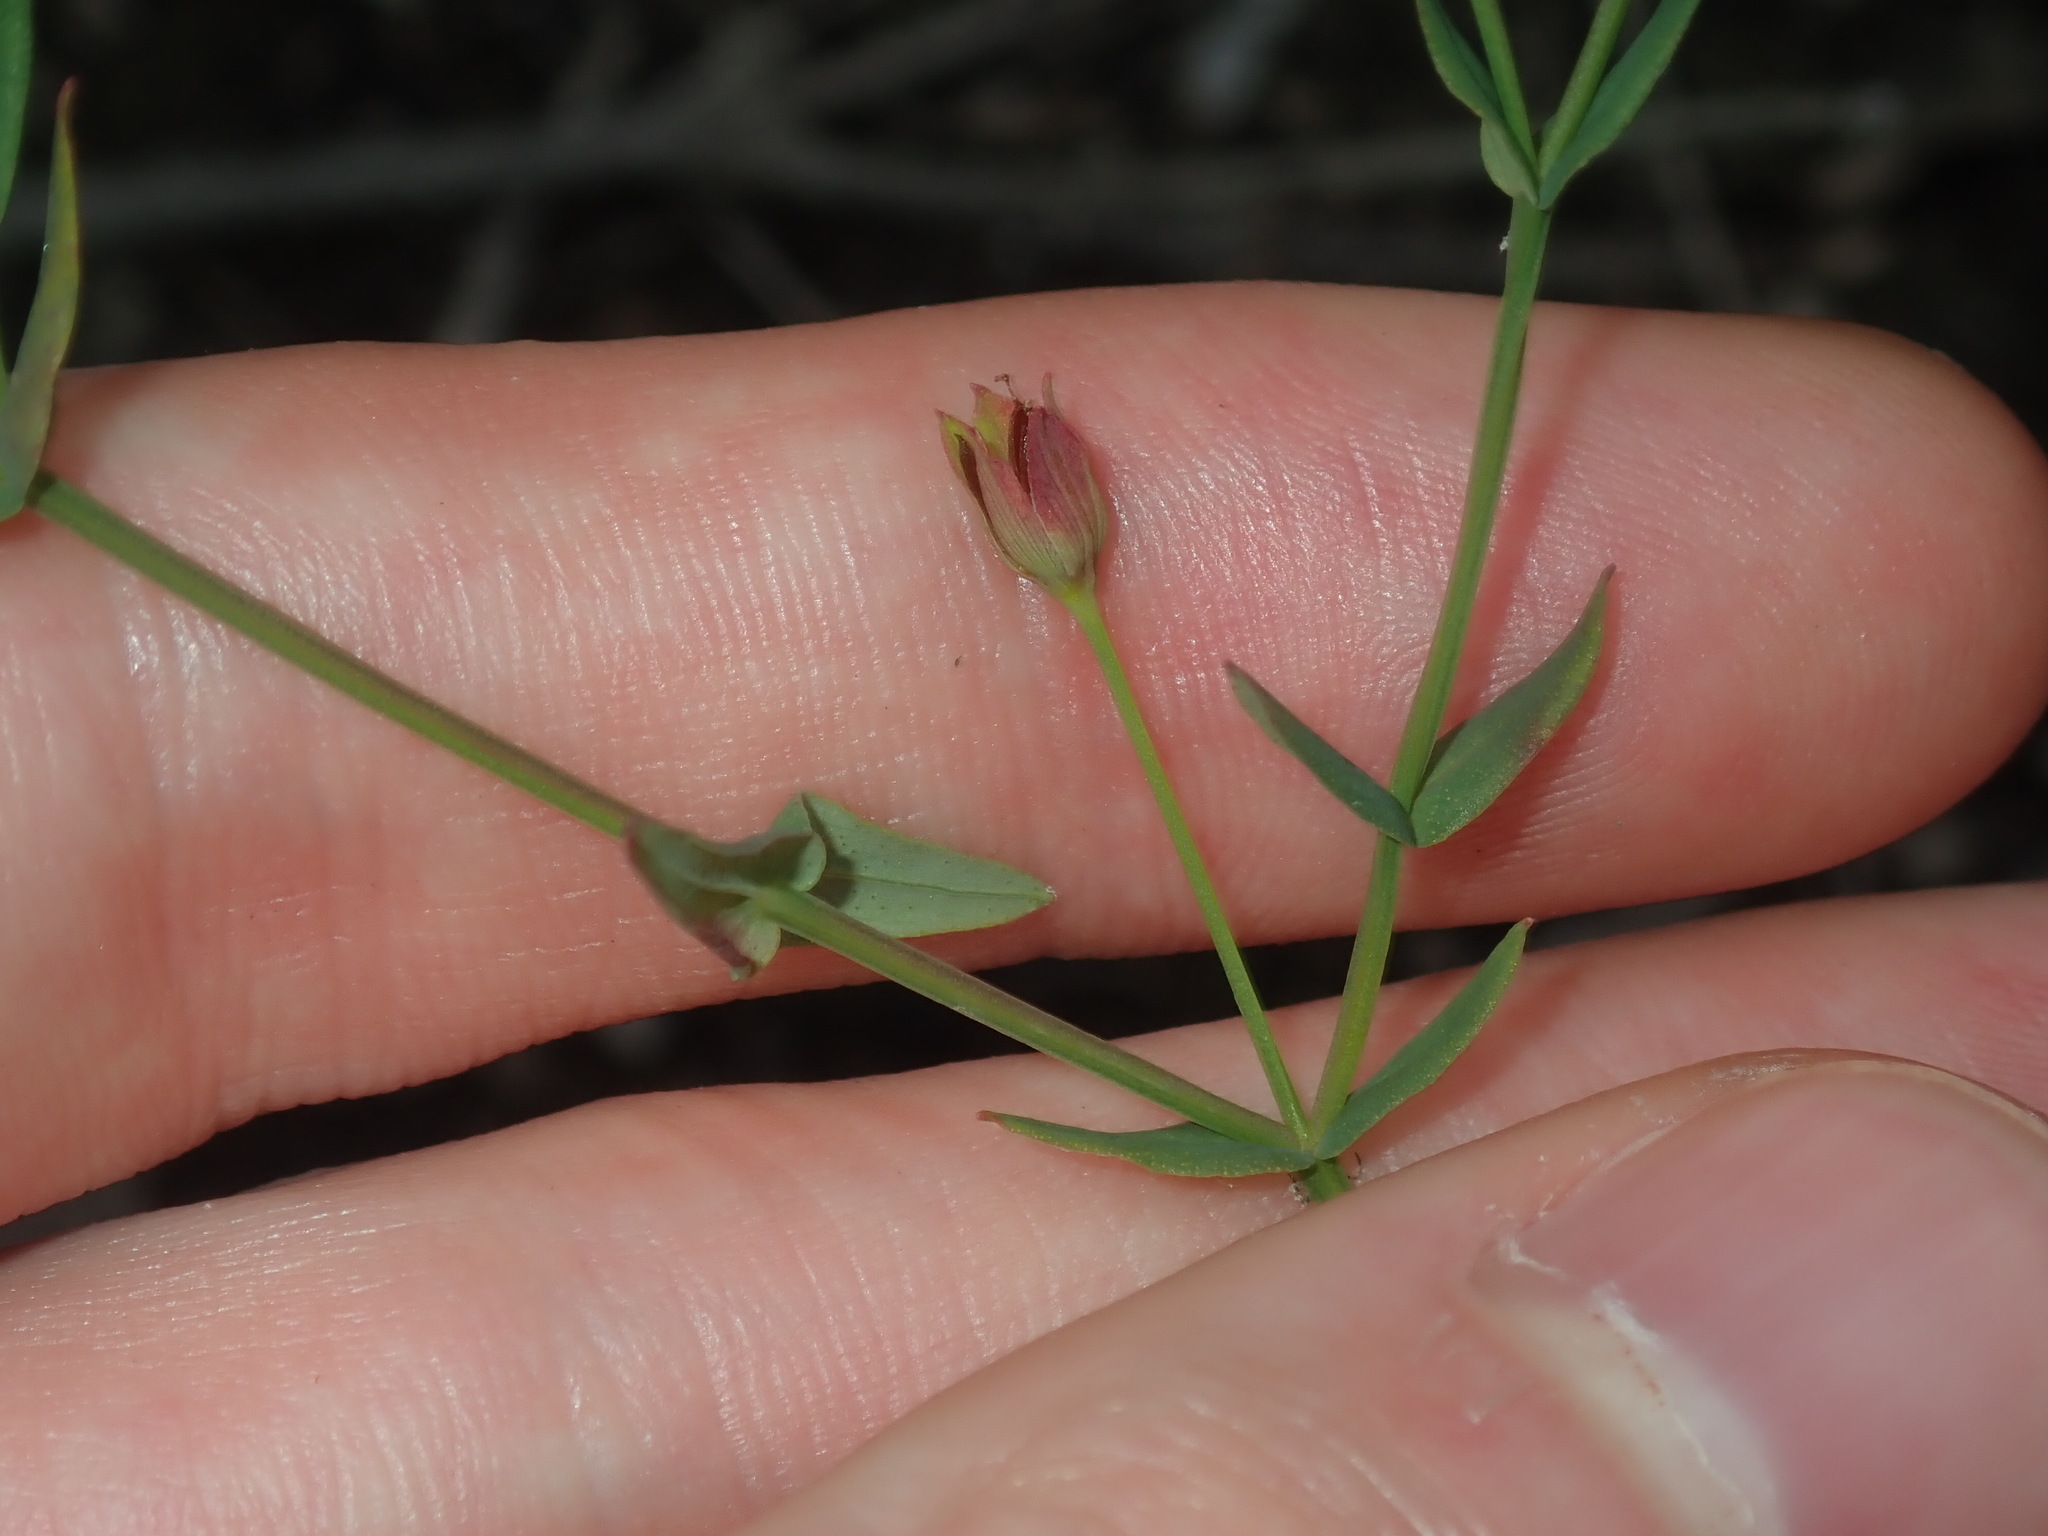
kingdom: Plantae
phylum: Tracheophyta
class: Magnoliopsida
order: Malpighiales
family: Hypericaceae
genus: Hypericum
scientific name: Hypericum gramineum
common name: Grassy st. johnswort
